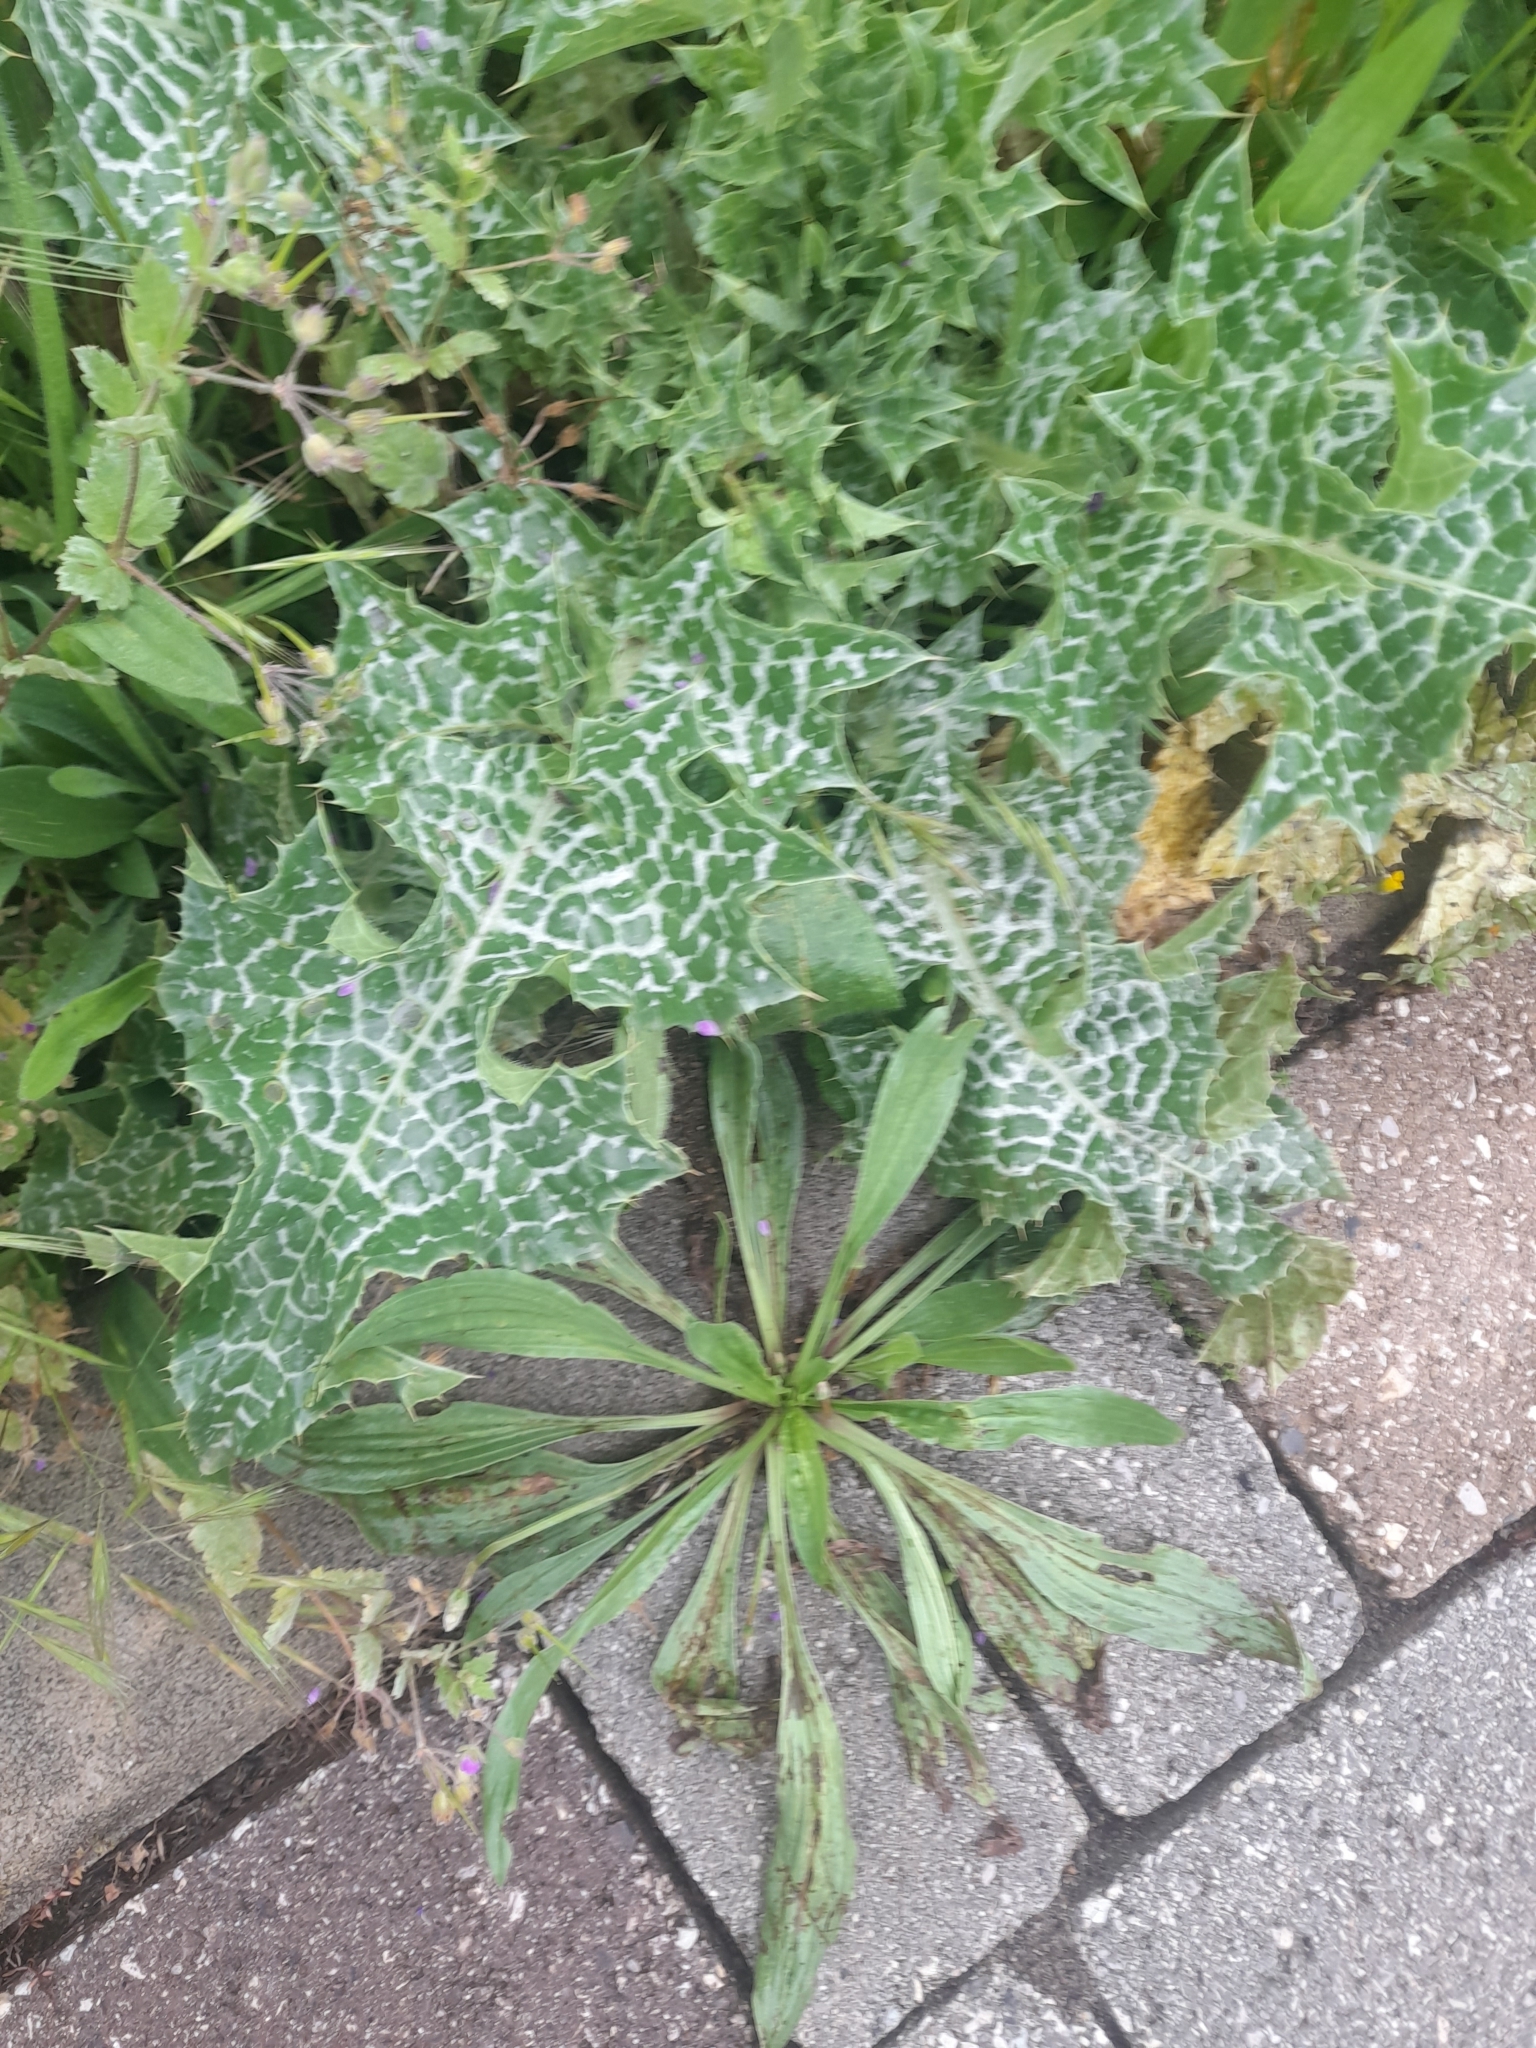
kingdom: Plantae
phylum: Tracheophyta
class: Magnoliopsida
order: Asterales
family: Asteraceae
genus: Silybum
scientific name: Silybum marianum
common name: Milk thistle
